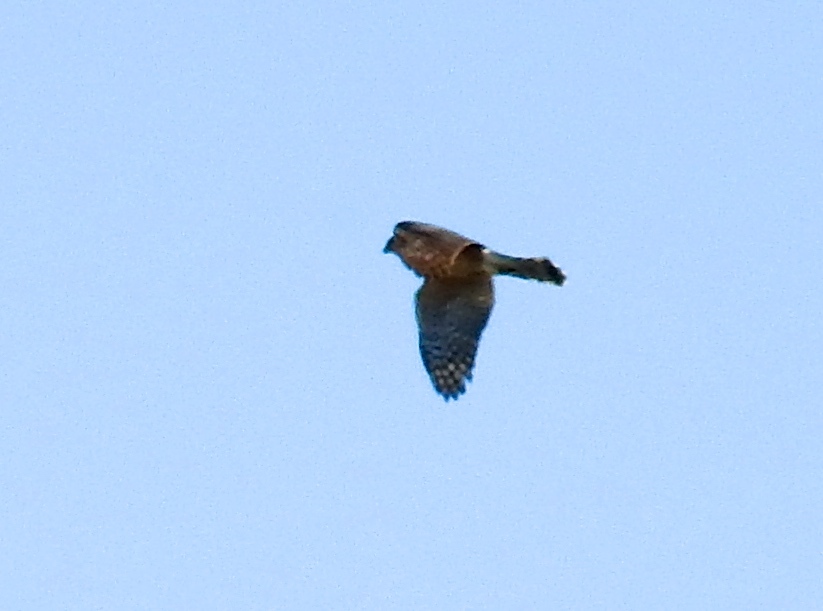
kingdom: Animalia
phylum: Chordata
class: Aves
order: Accipitriformes
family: Accipitridae
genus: Accipiter
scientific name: Accipiter striatus
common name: Sharp-shinned hawk
